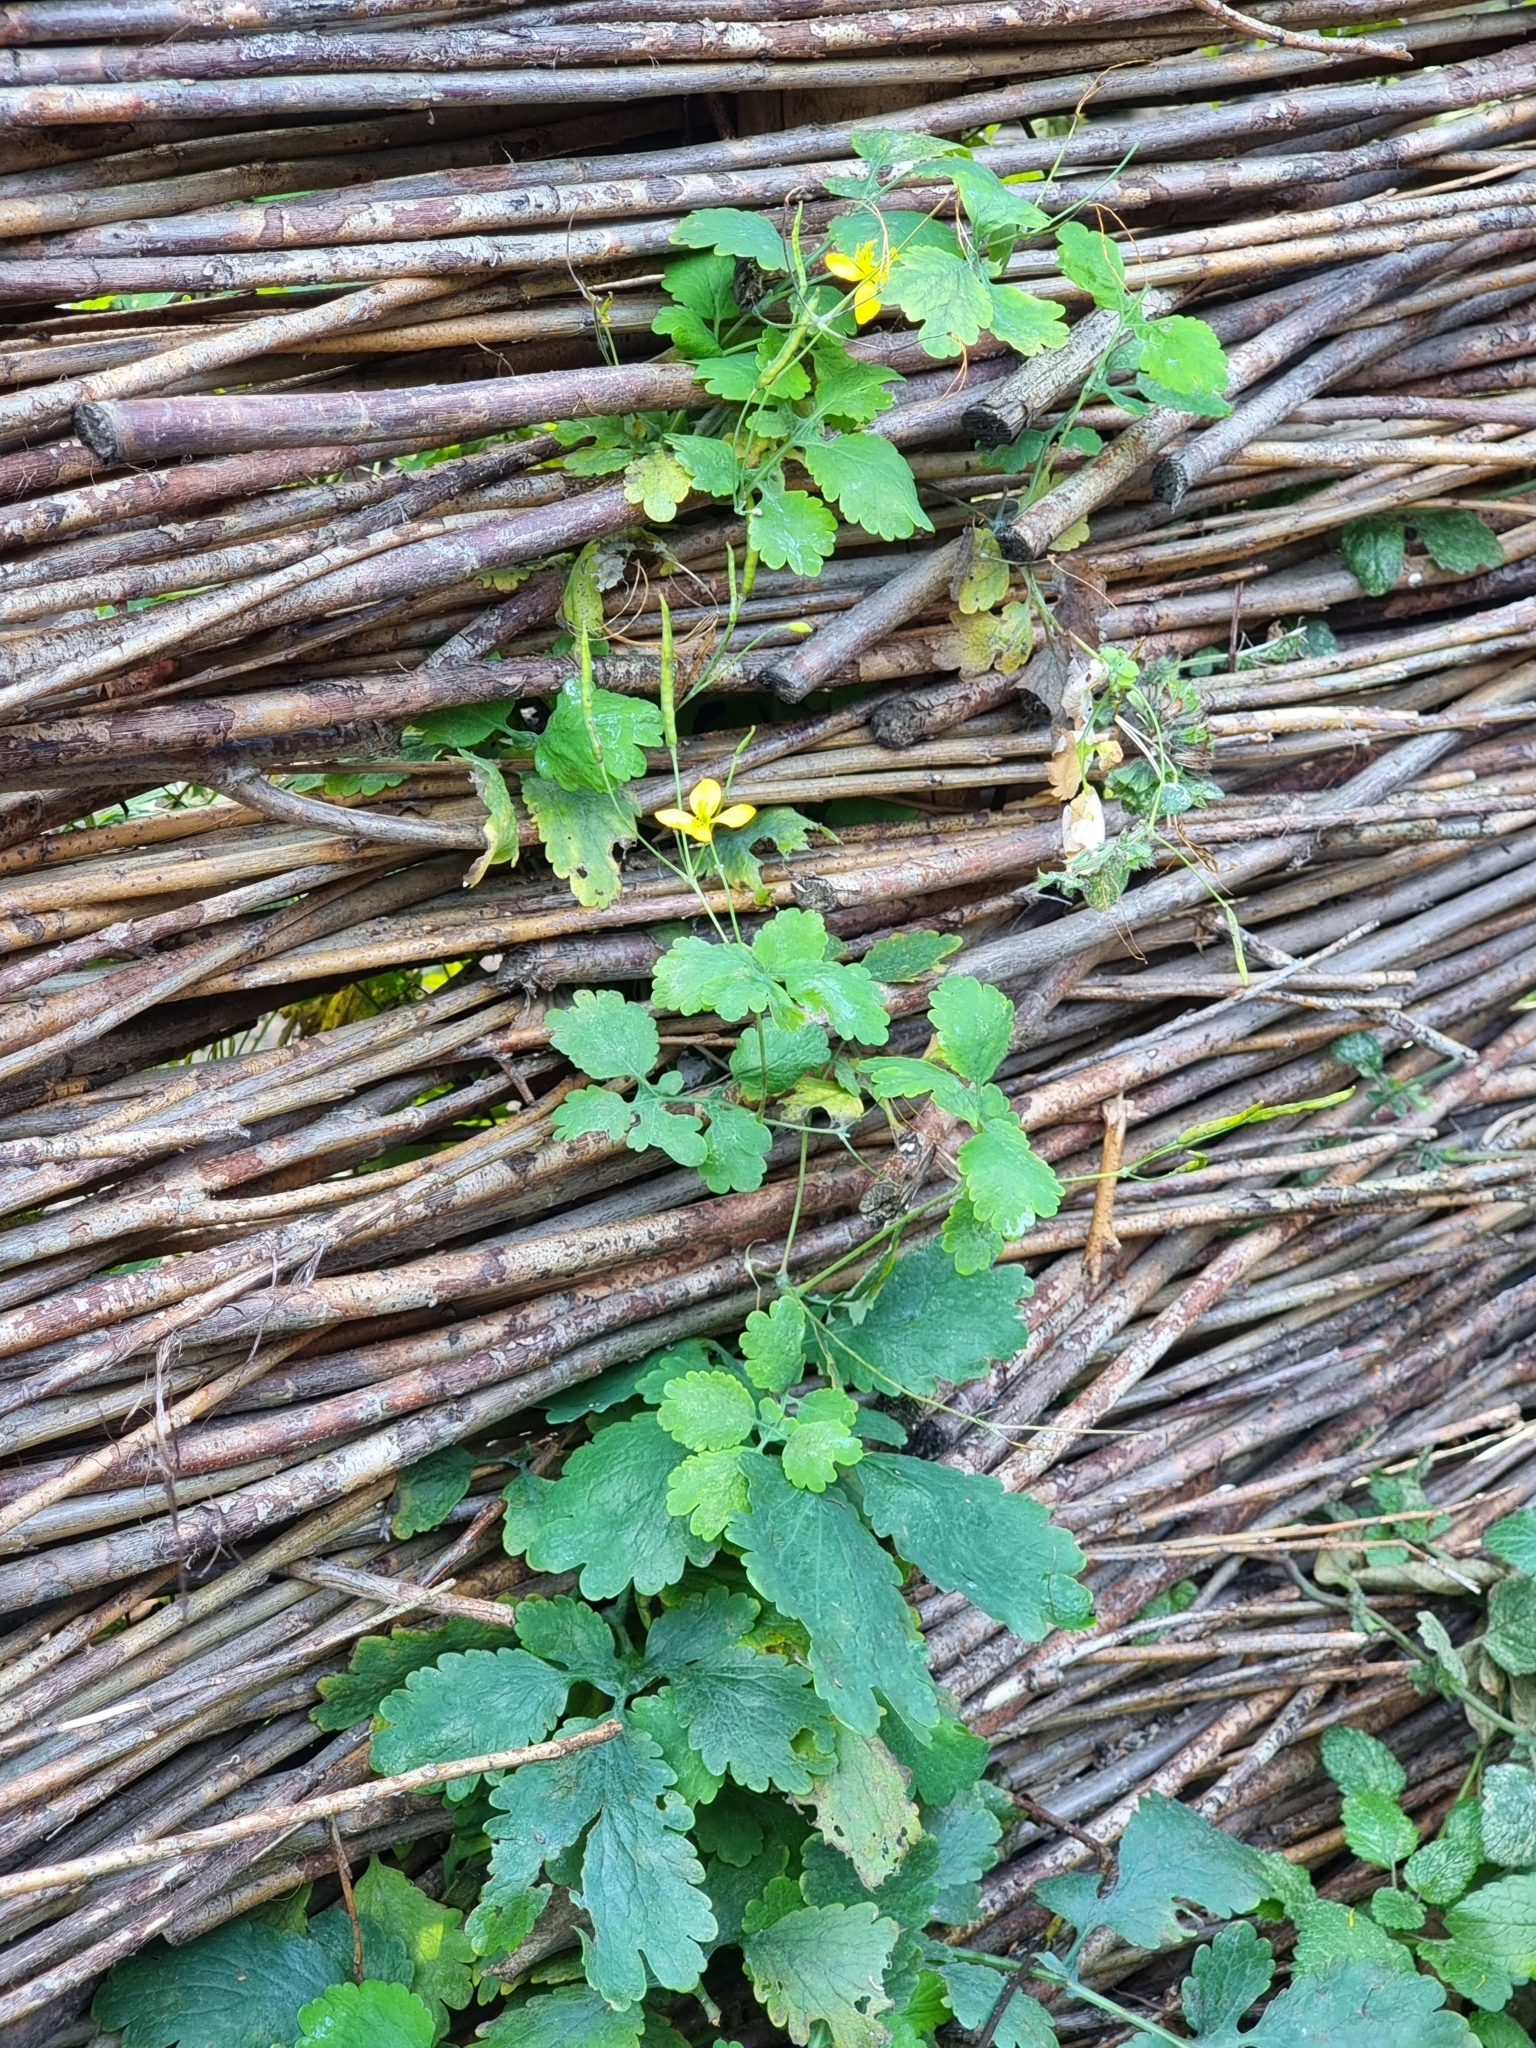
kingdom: Plantae
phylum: Tracheophyta
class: Magnoliopsida
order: Ranunculales
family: Papaveraceae
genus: Chelidonium
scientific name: Chelidonium majus
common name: Greater celandine
